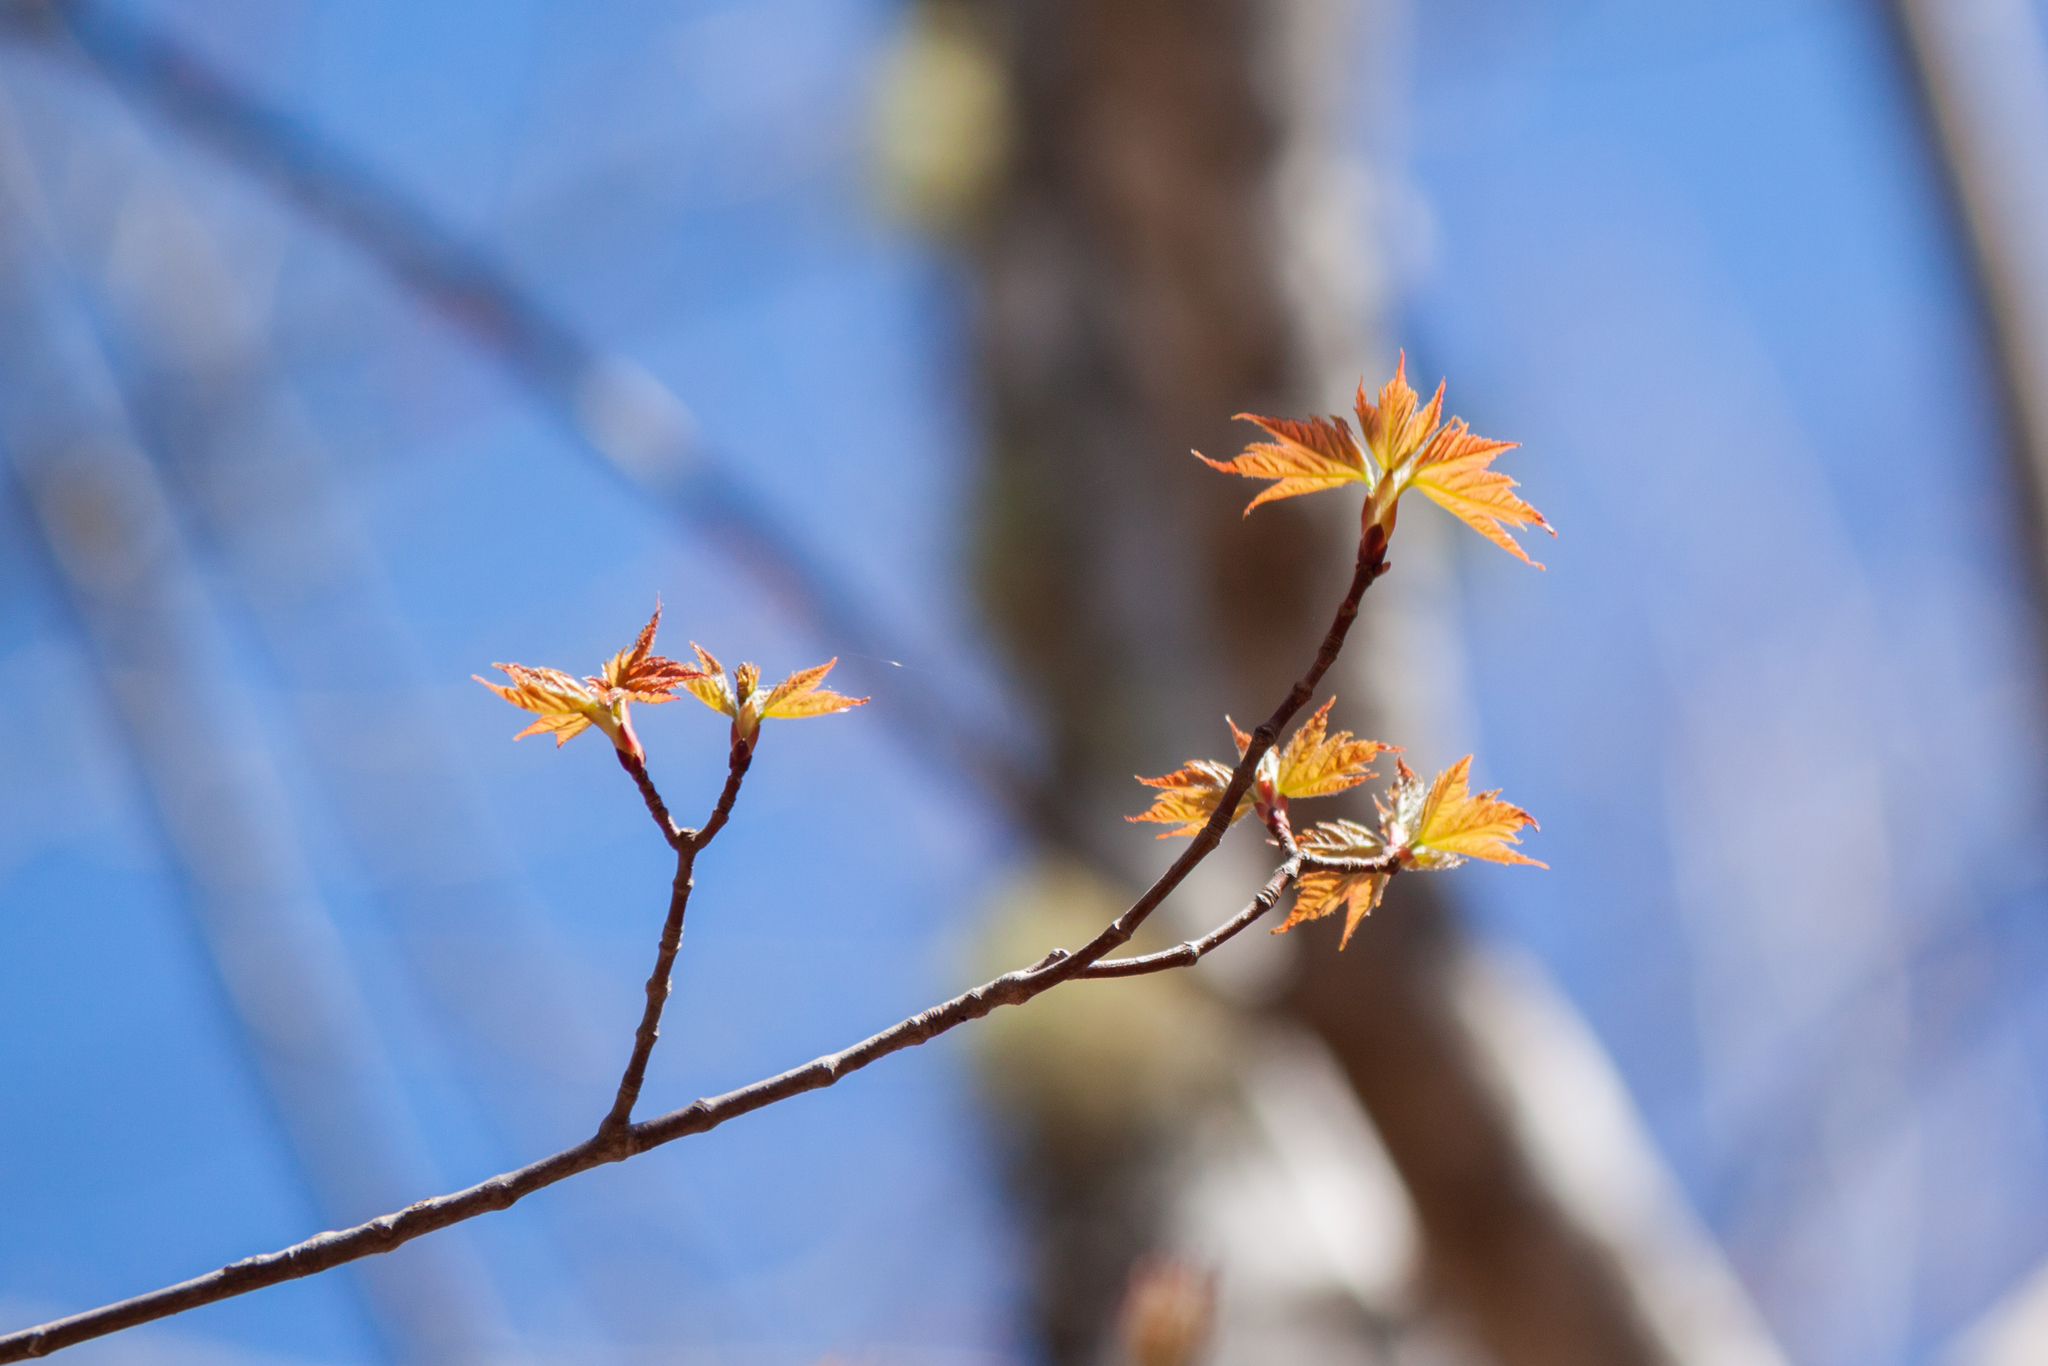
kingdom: Plantae
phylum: Tracheophyta
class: Magnoliopsida
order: Sapindales
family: Sapindaceae
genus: Acer
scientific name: Acer rubrum
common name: Red maple
